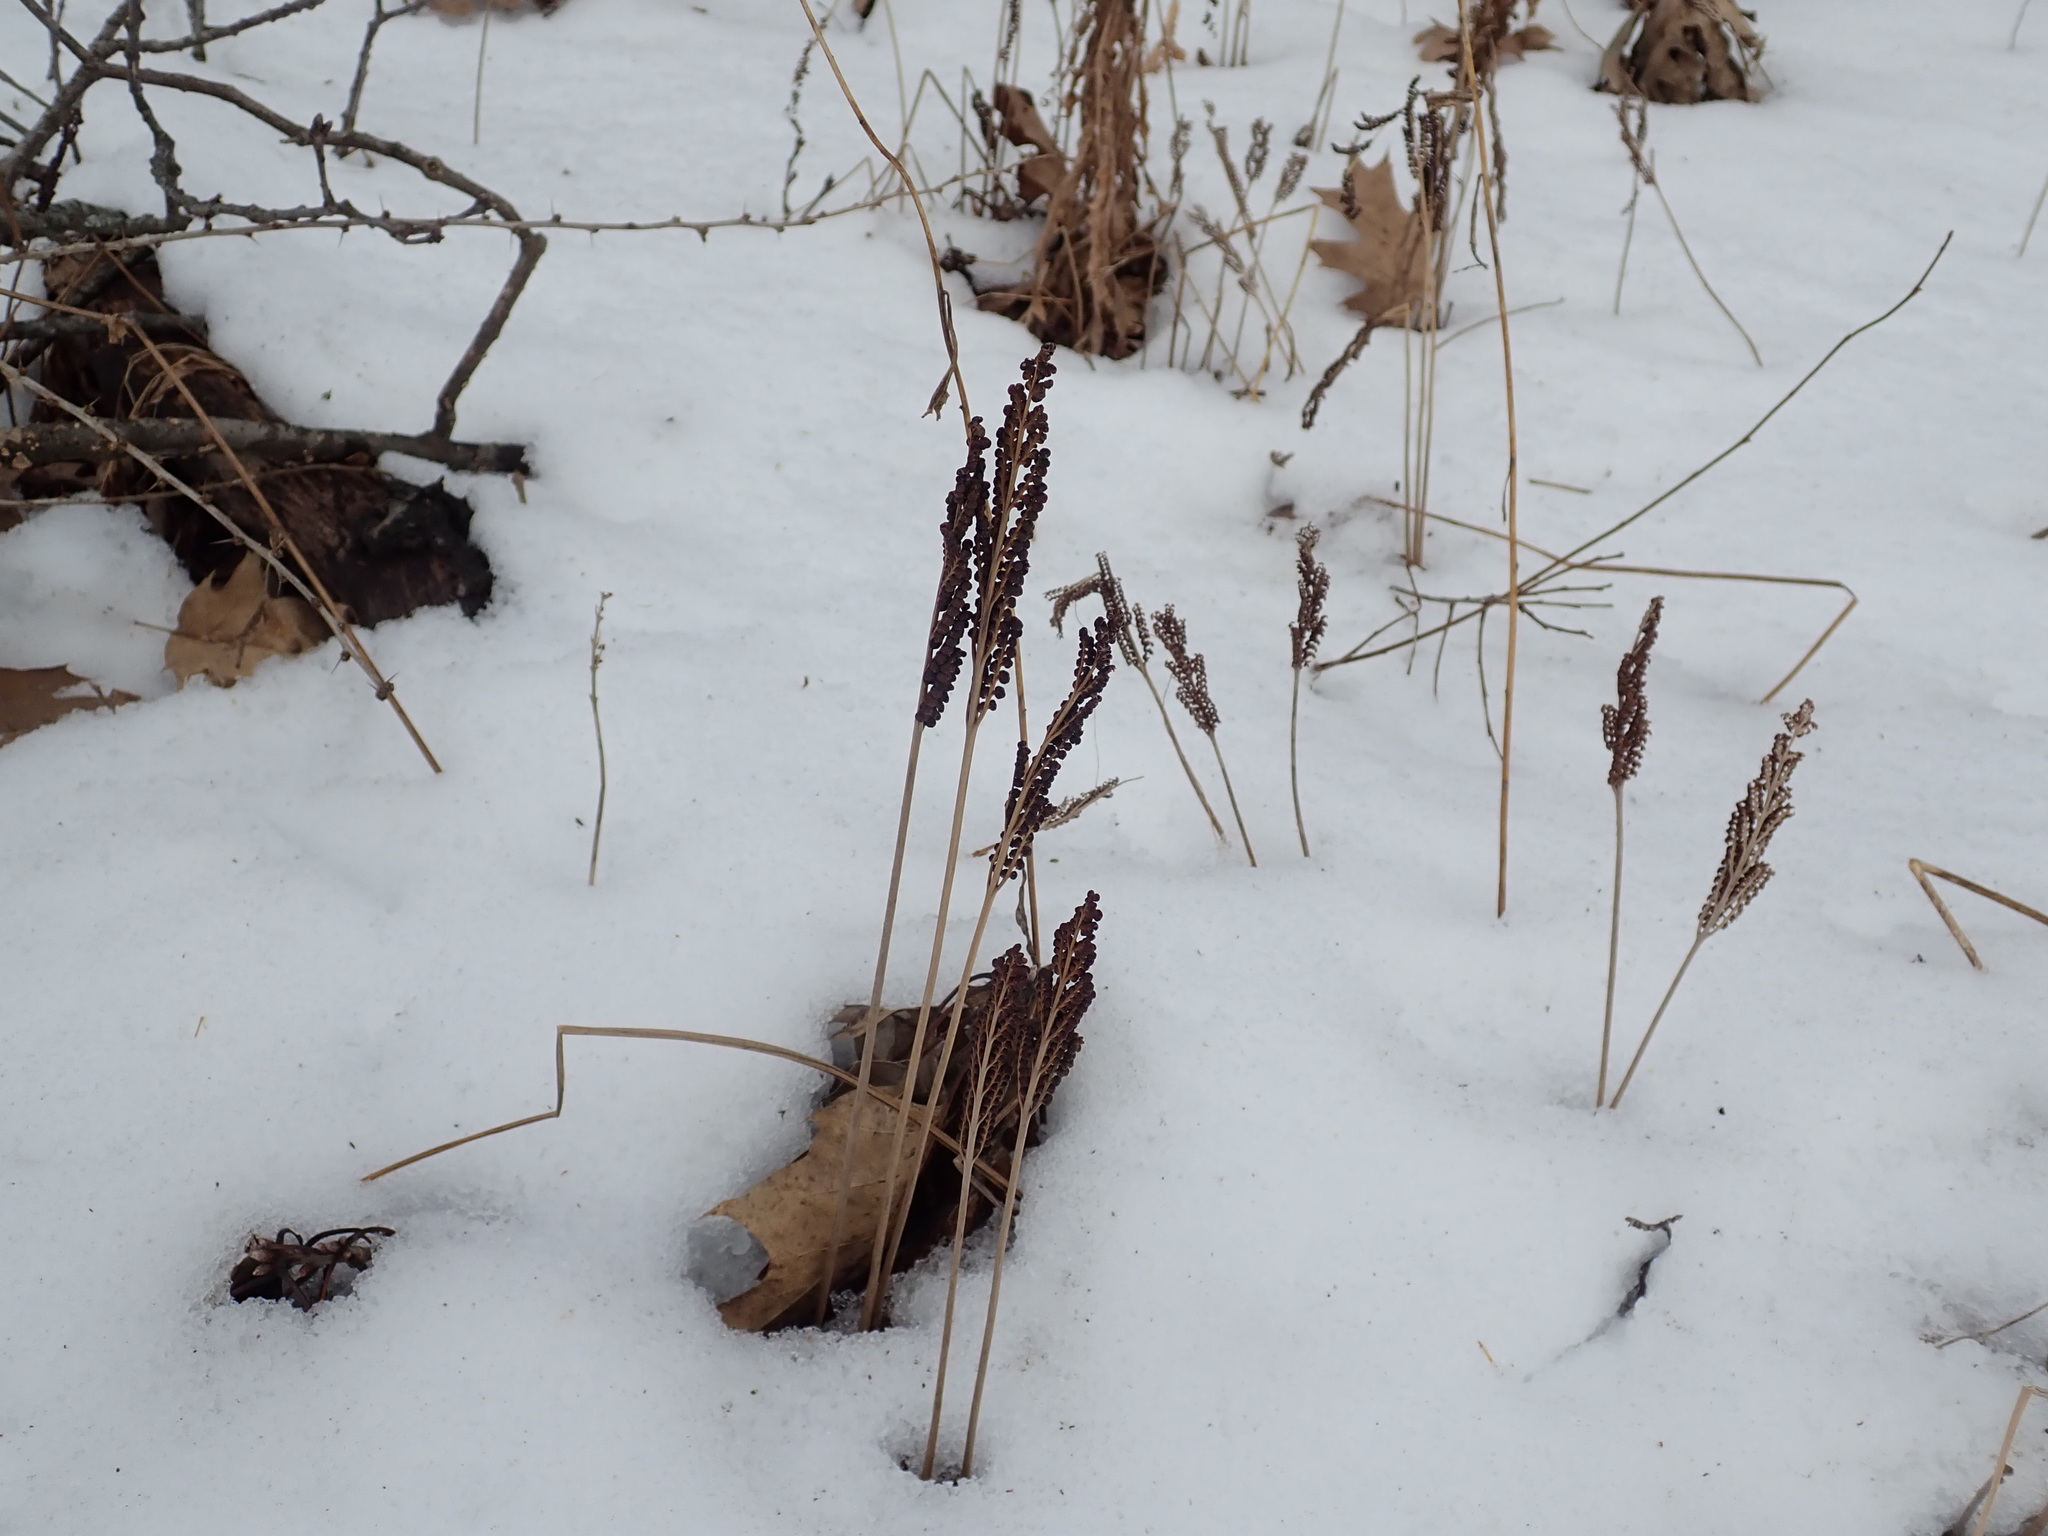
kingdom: Plantae
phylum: Tracheophyta
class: Polypodiopsida
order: Polypodiales
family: Onocleaceae
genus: Onoclea
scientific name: Onoclea sensibilis
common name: Sensitive fern
